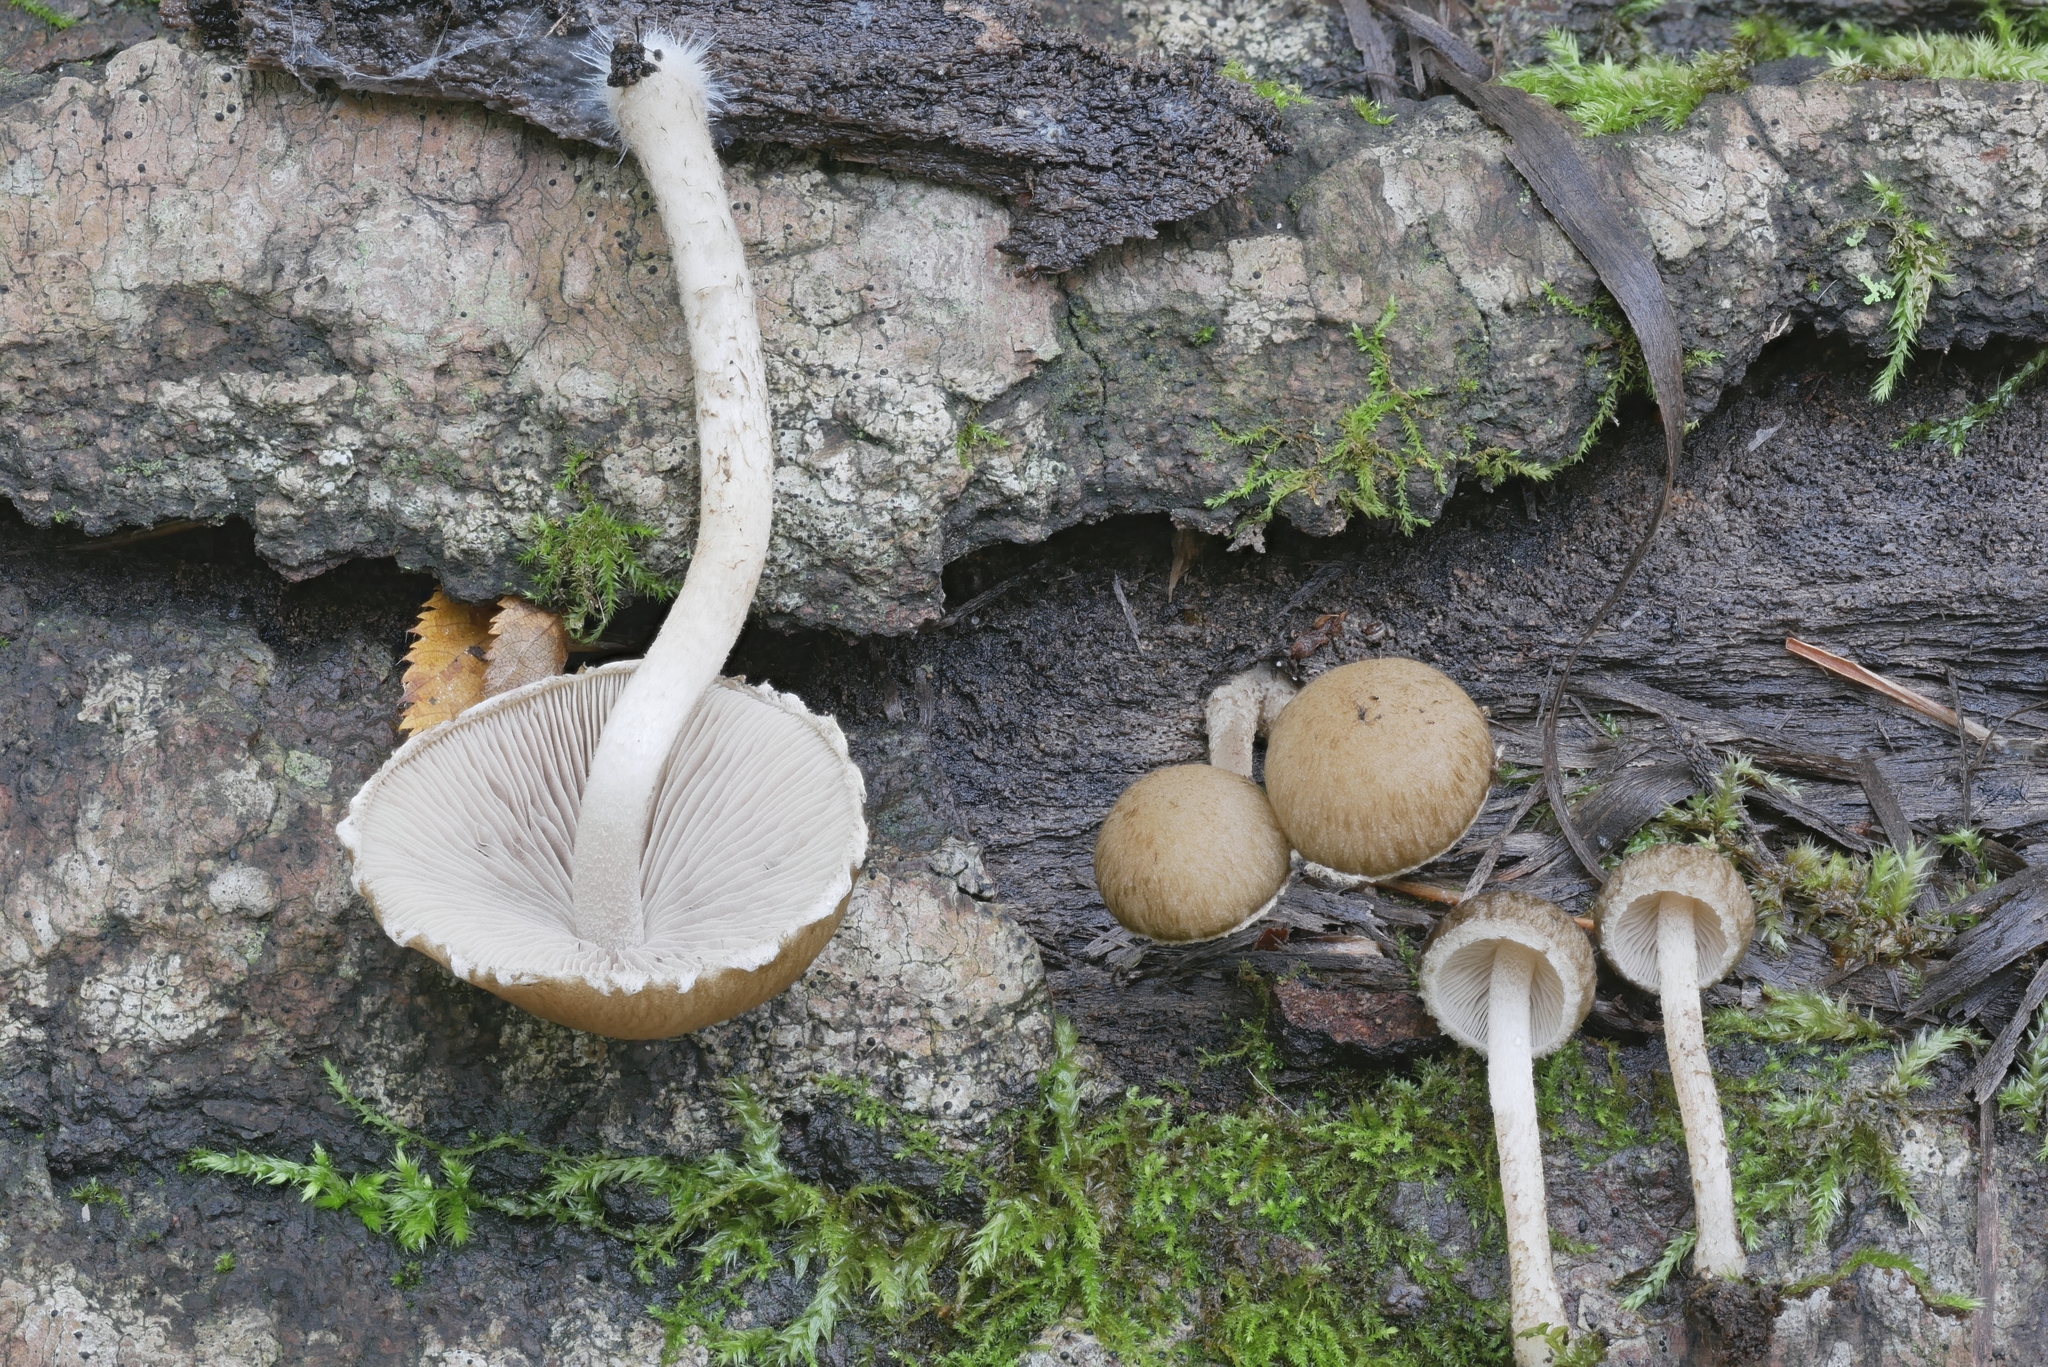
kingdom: Fungi
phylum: Basidiomycota
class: Agaricomycetes
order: Agaricales
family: Psathyrellaceae
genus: Cystoagaricus
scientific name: Cystoagaricus hirtosquamulosus
